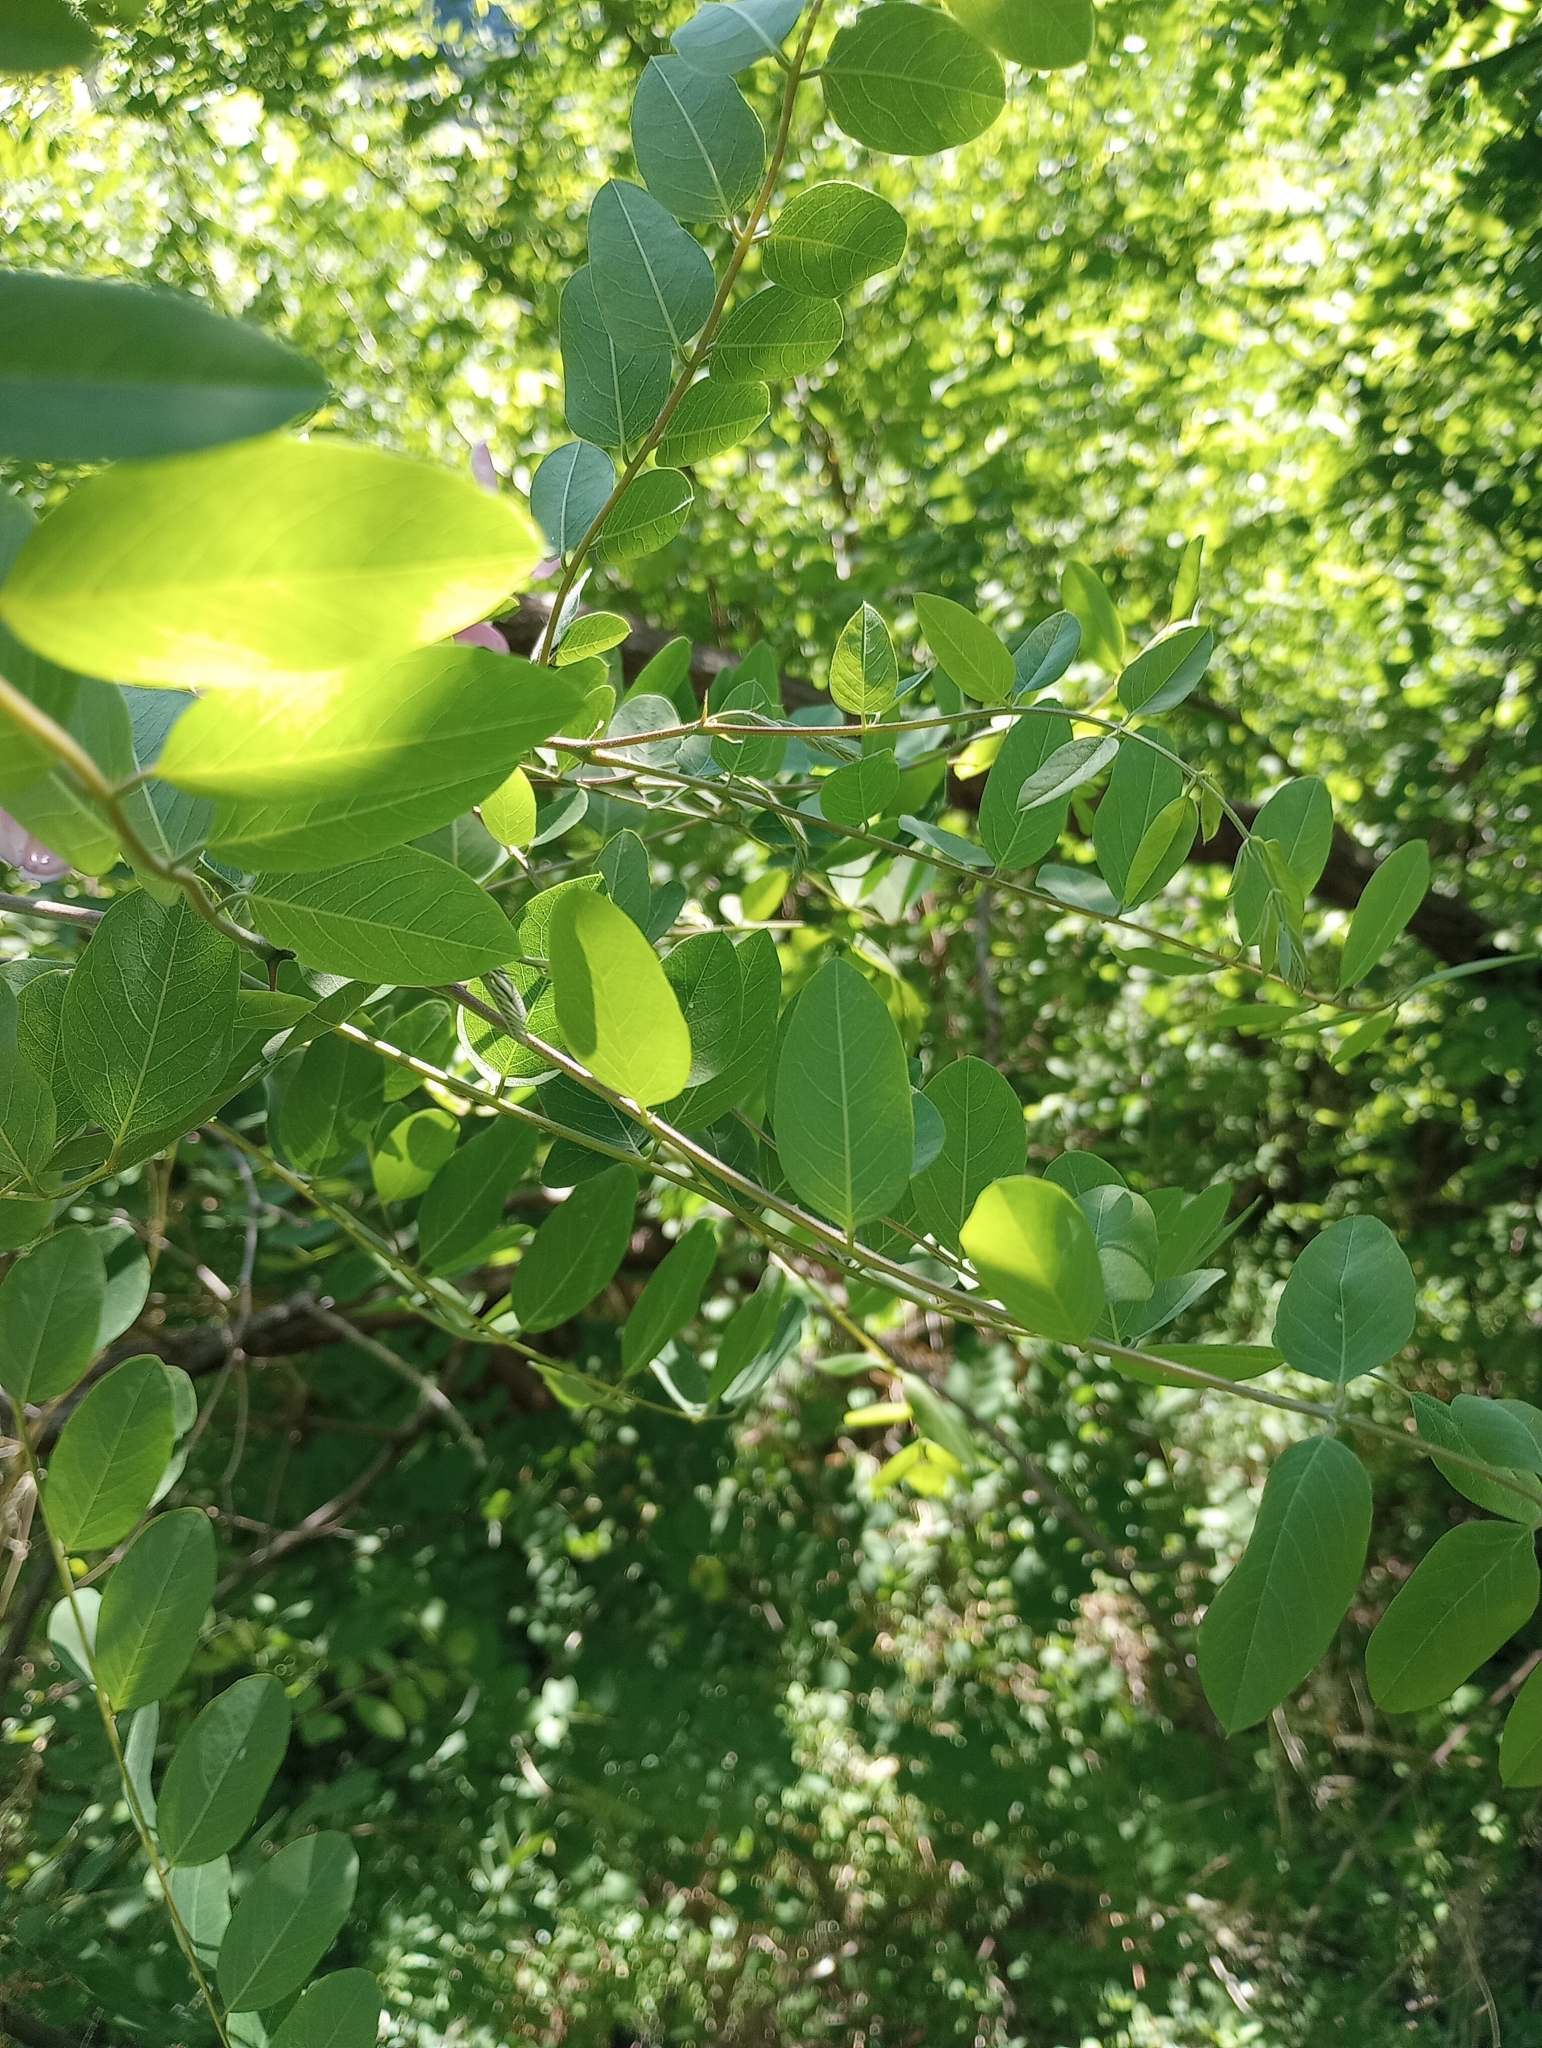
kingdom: Plantae
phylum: Tracheophyta
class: Magnoliopsida
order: Fabales
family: Fabaceae
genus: Robinia
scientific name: Robinia neomexicana
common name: New mexico locust
